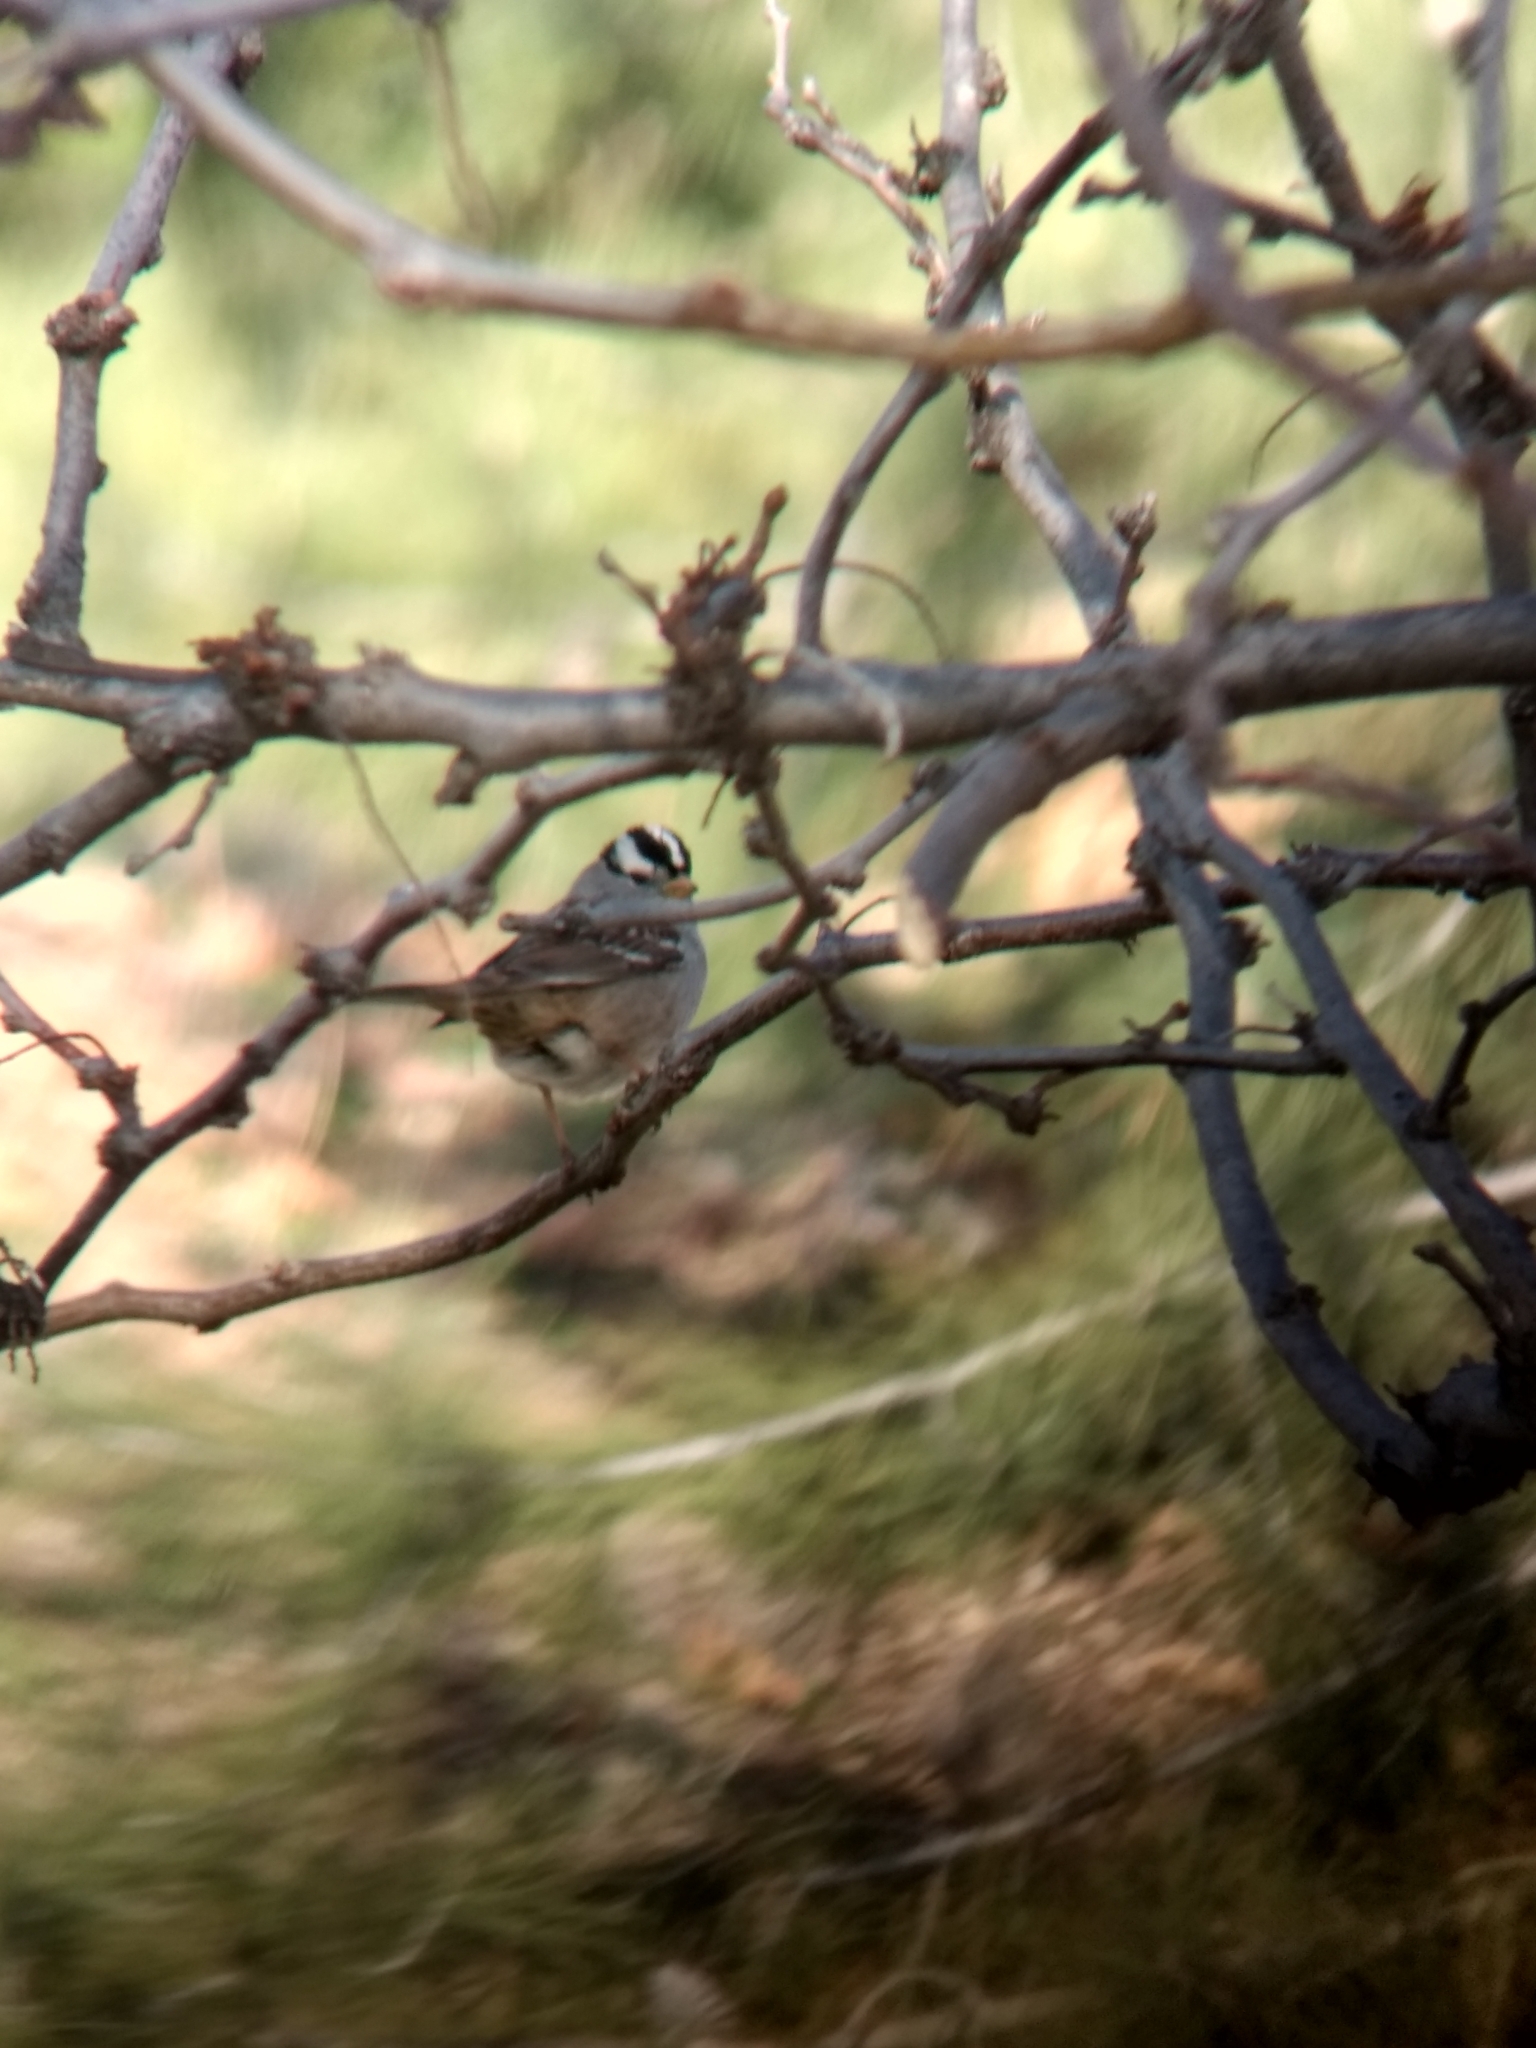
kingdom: Animalia
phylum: Chordata
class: Aves
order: Passeriformes
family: Passerellidae
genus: Zonotrichia
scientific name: Zonotrichia leucophrys
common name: White-crowned sparrow
